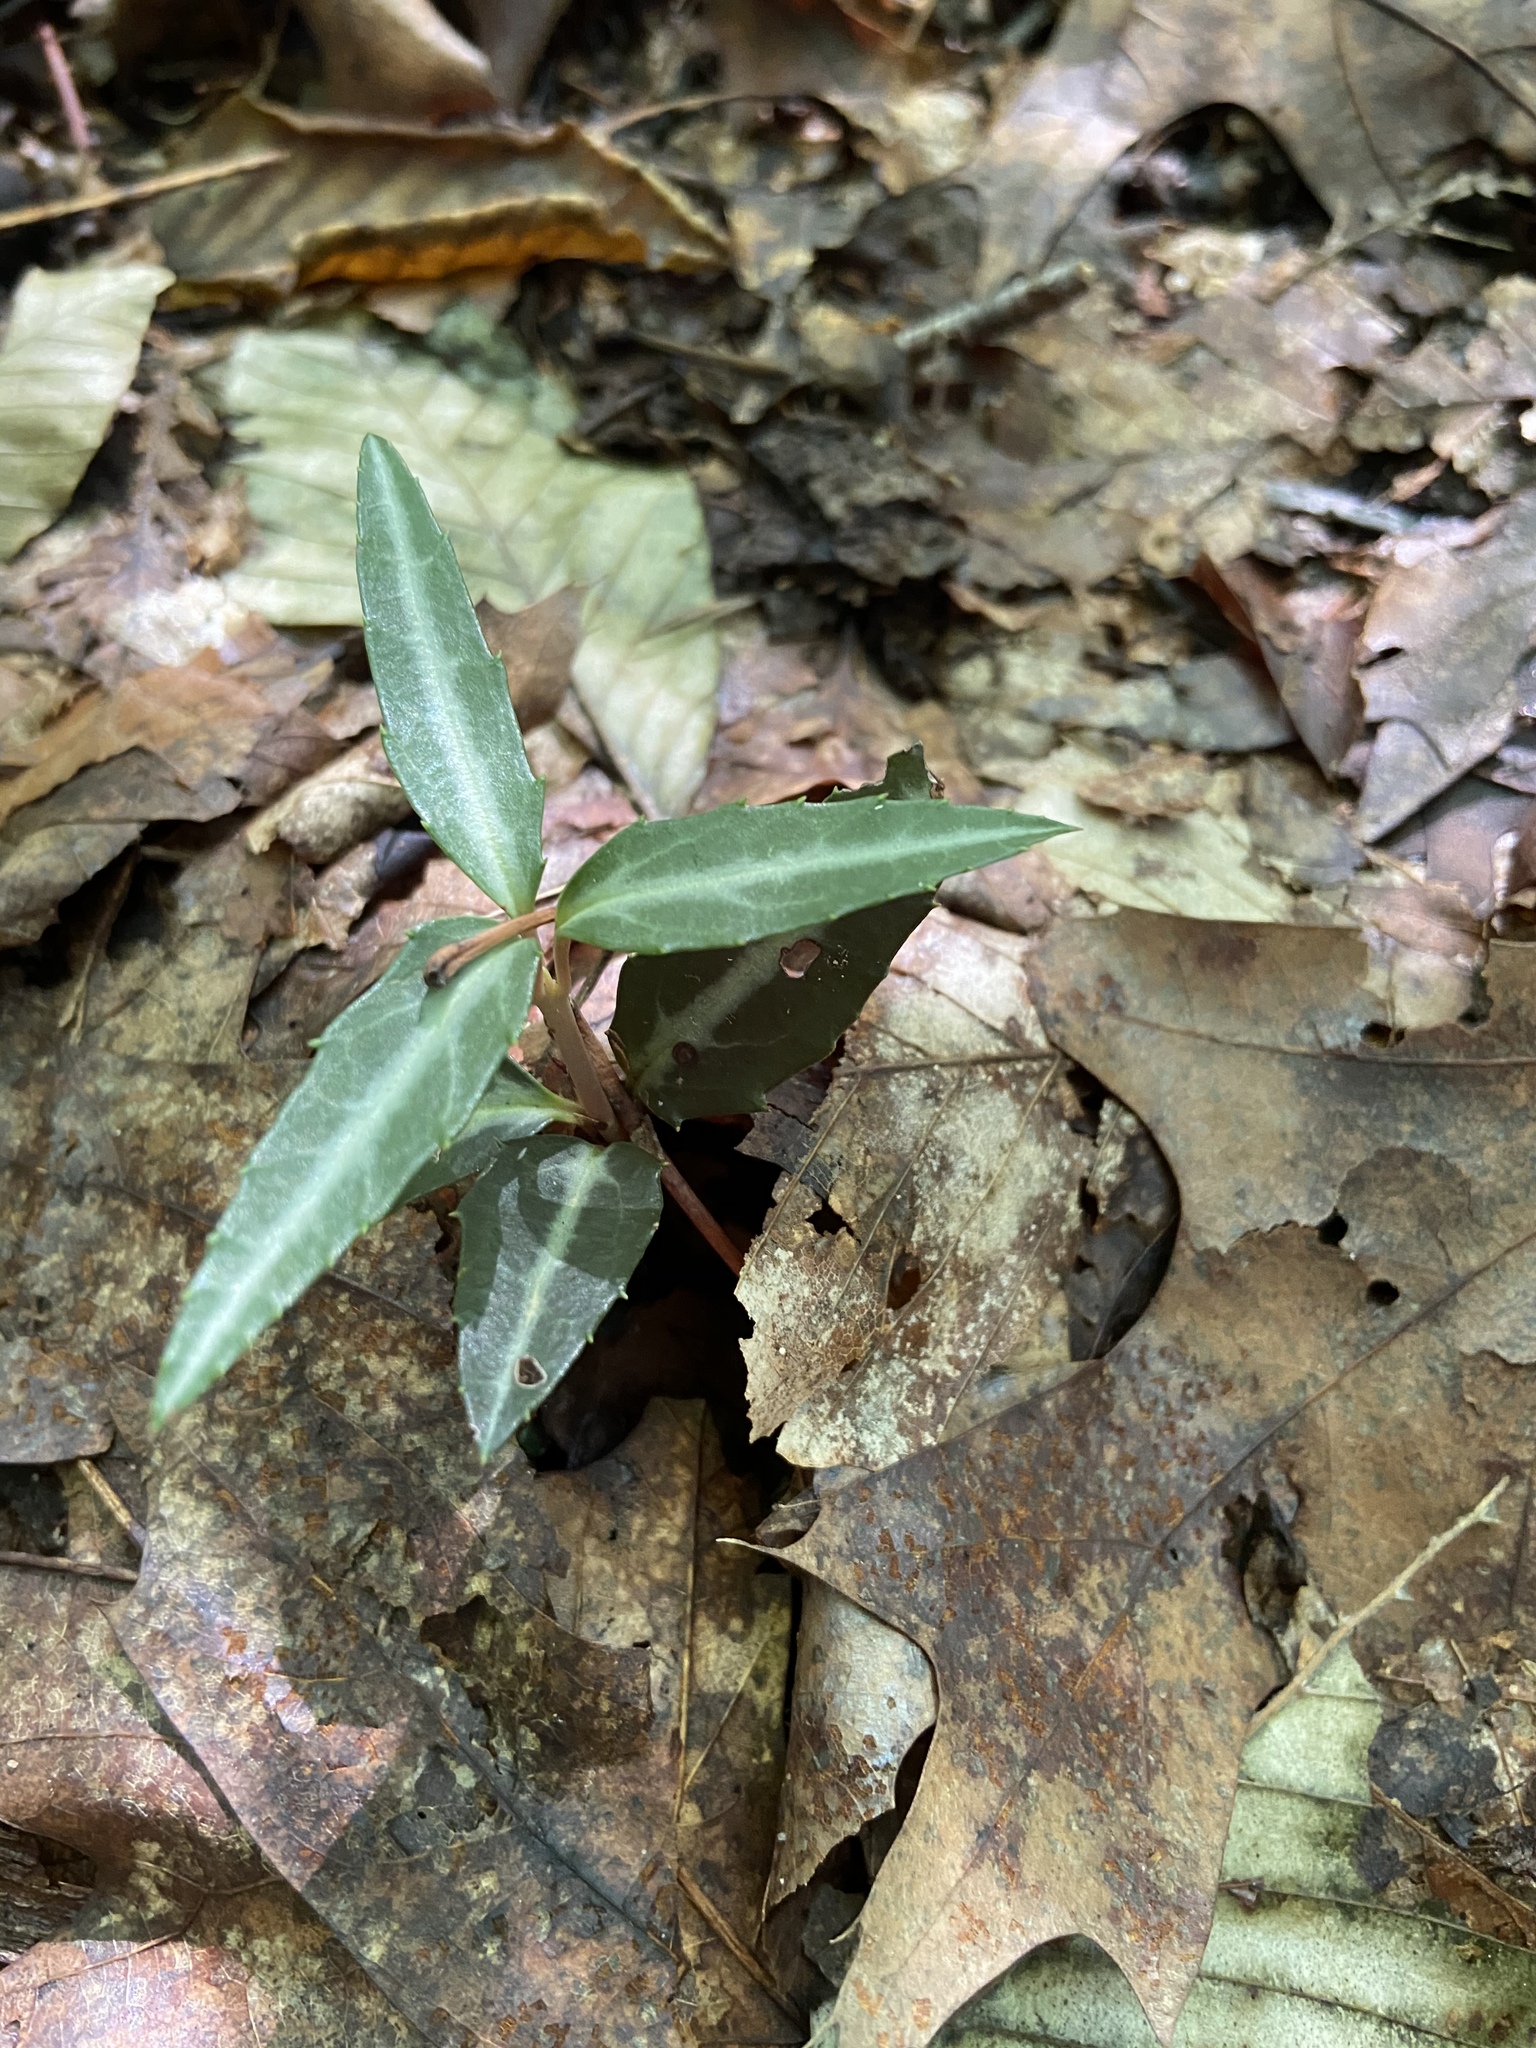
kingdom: Plantae
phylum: Tracheophyta
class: Magnoliopsida
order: Ericales
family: Ericaceae
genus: Chimaphila
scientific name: Chimaphila maculata
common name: Spotted pipsissewa
